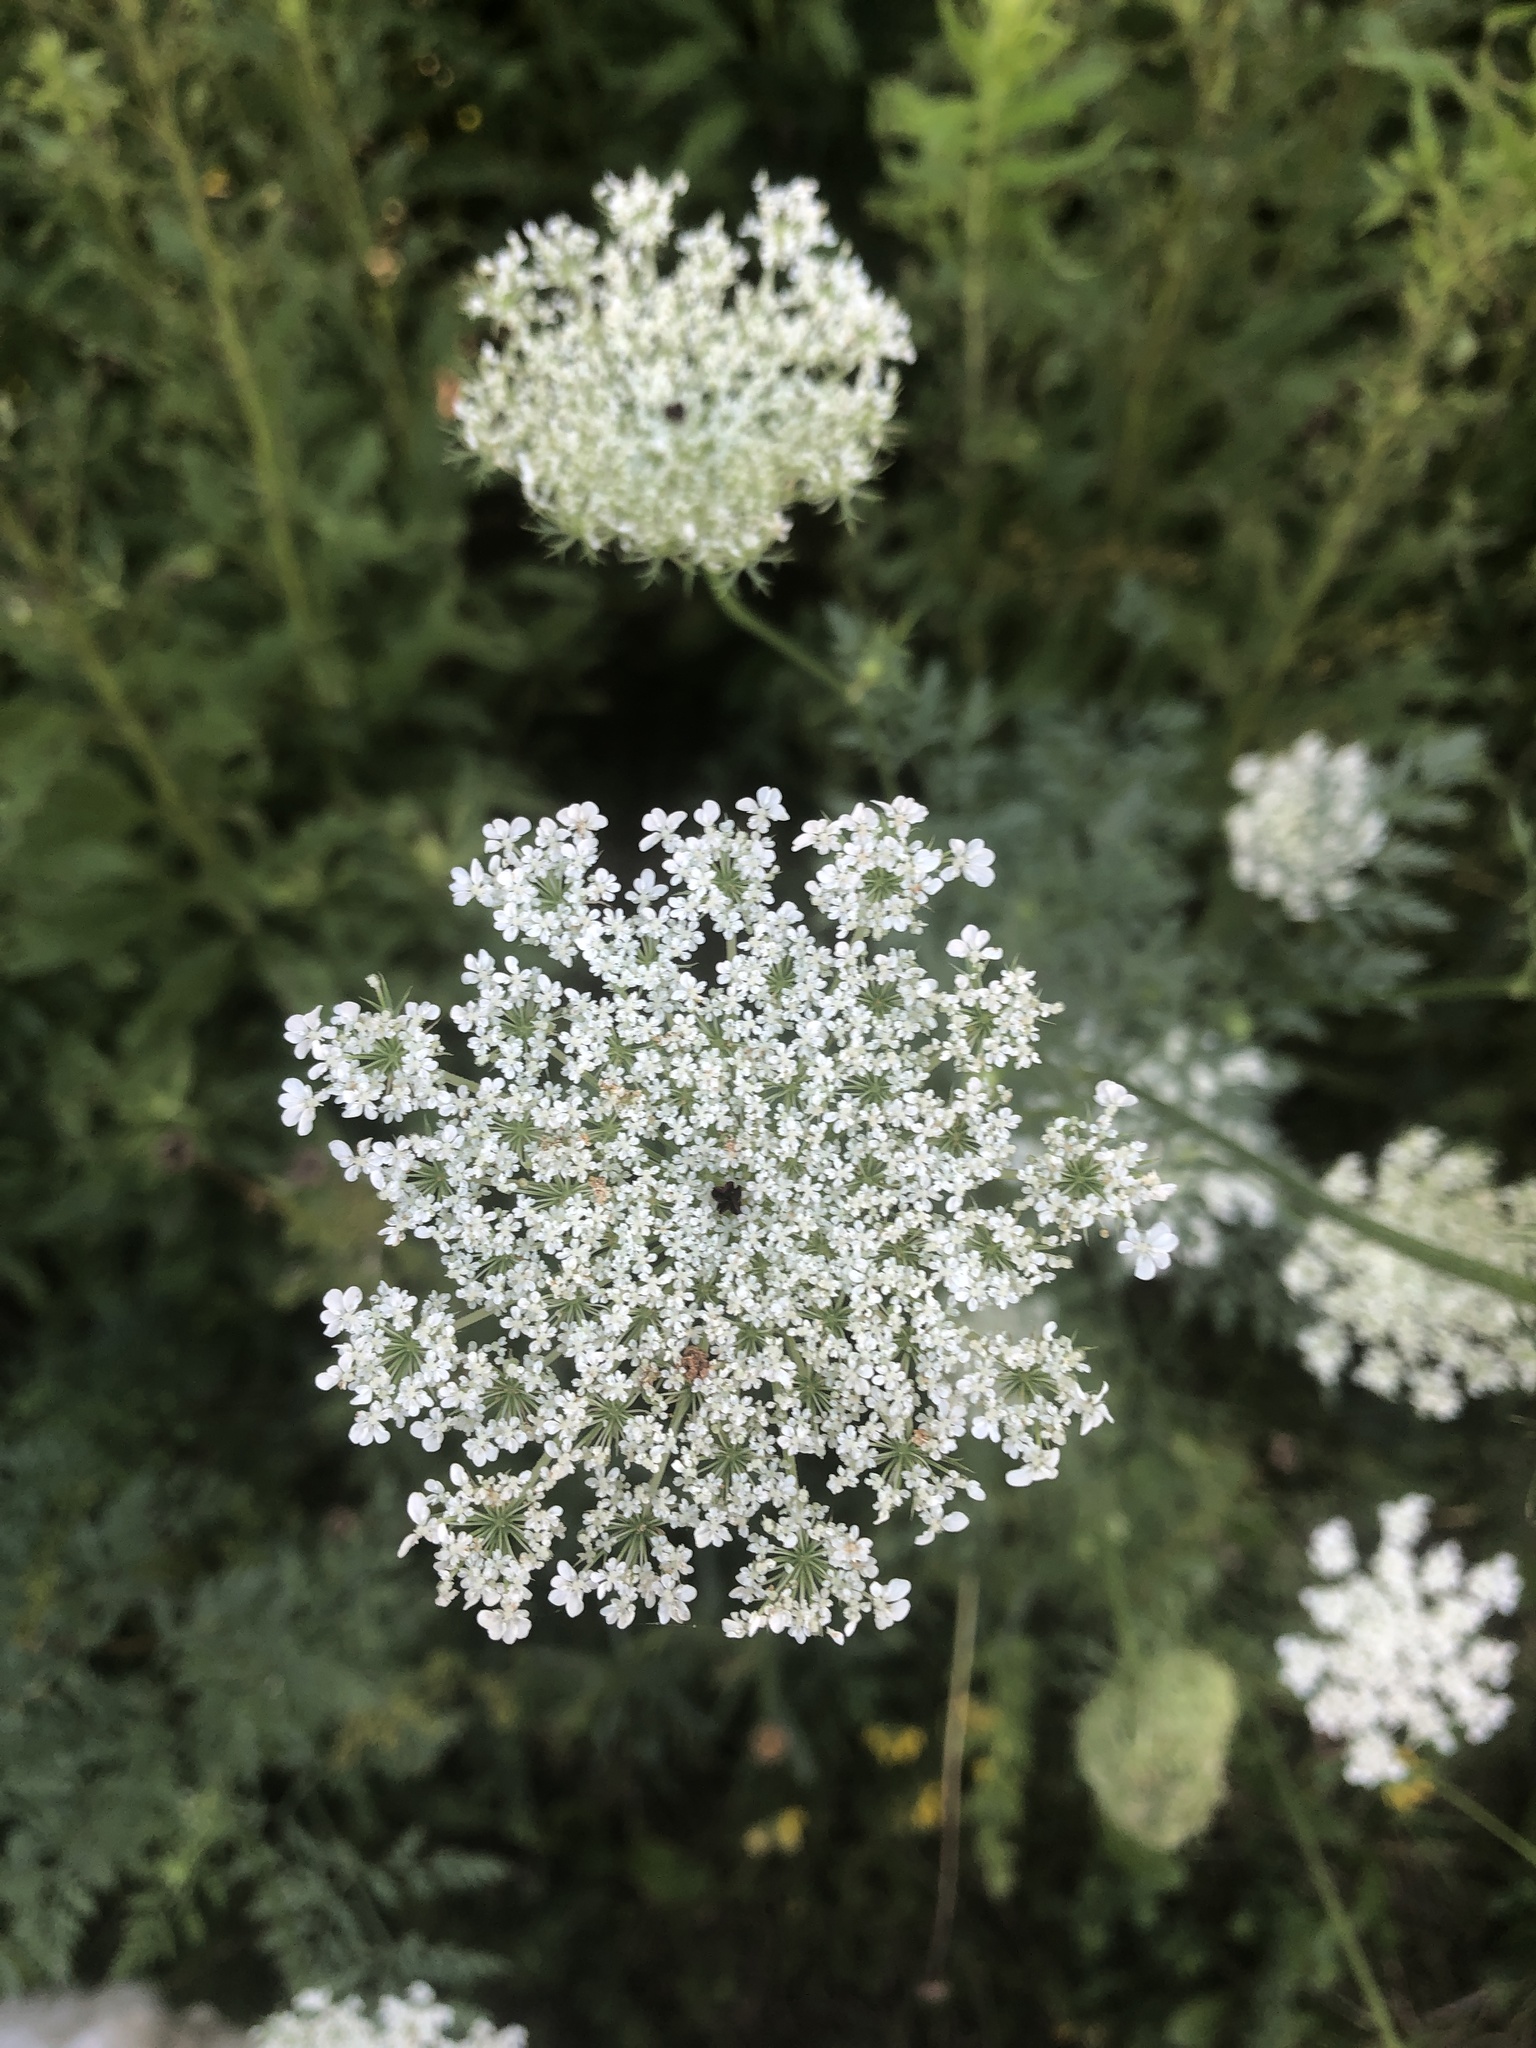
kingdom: Plantae
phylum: Tracheophyta
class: Magnoliopsida
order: Apiales
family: Apiaceae
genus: Daucus
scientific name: Daucus carota
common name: Wild carrot
